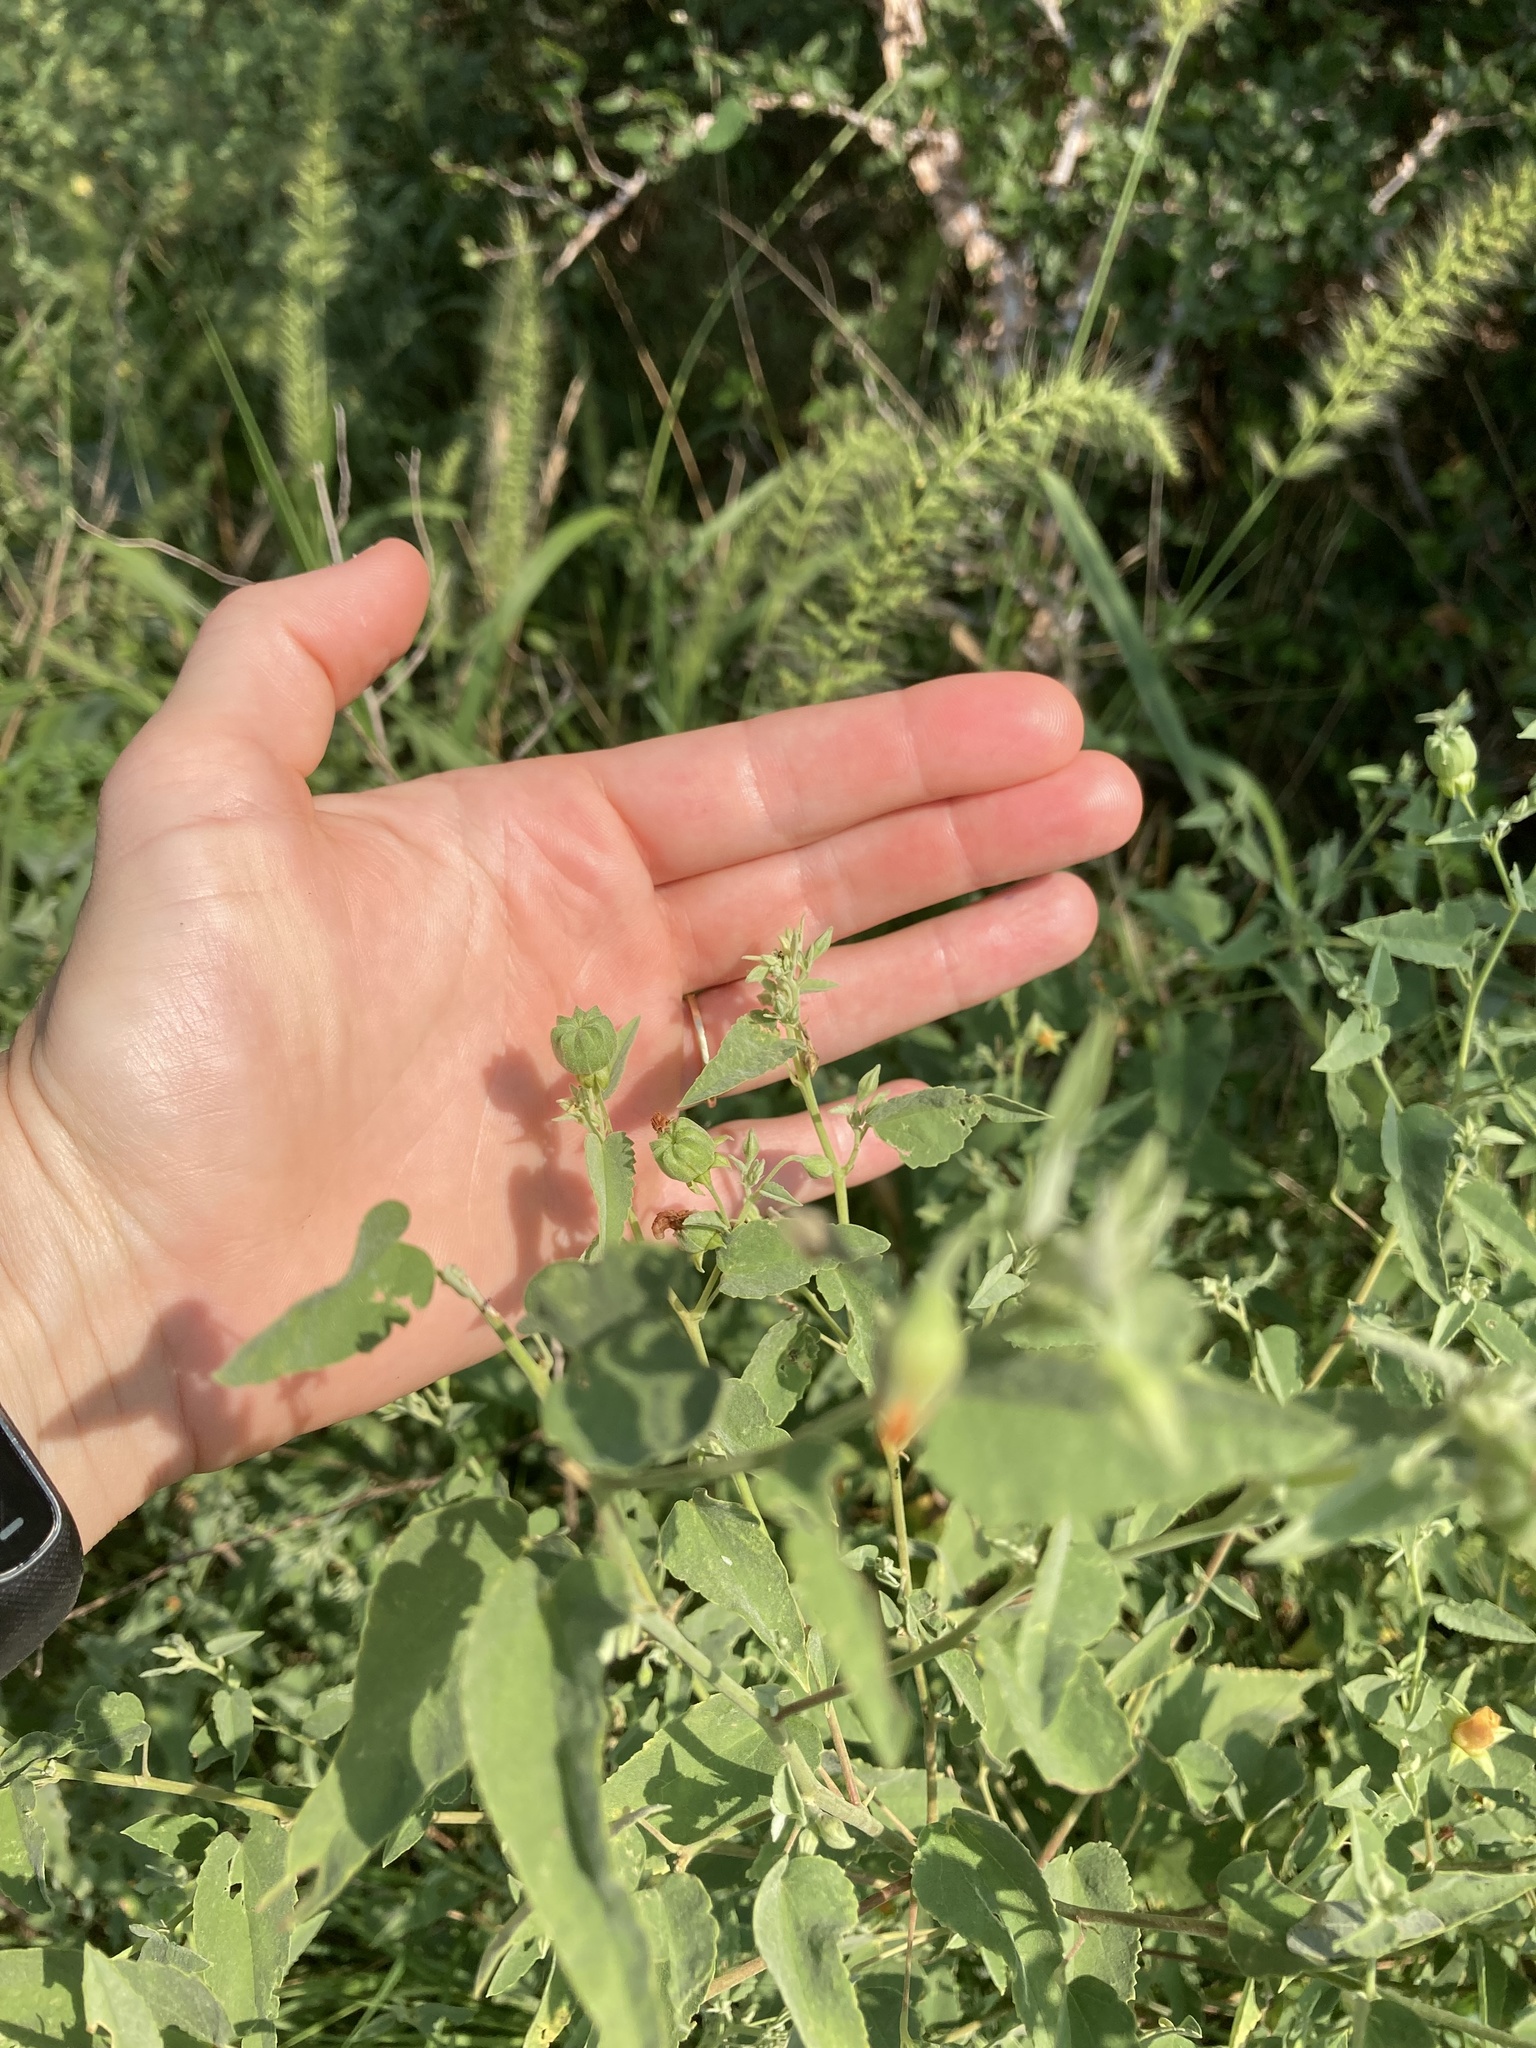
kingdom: Plantae
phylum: Tracheophyta
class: Magnoliopsida
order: Malvales
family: Malvaceae
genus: Abutilon
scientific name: Abutilon fruticosum
